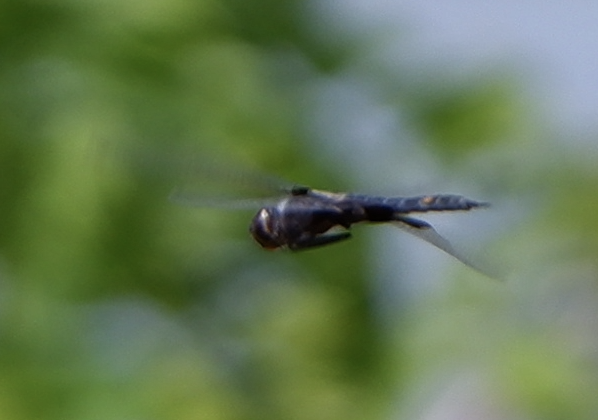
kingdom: Animalia
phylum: Arthropoda
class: Insecta
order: Odonata
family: Libellulidae
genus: Tramea
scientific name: Tramea lacerata
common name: Black saddlebags
